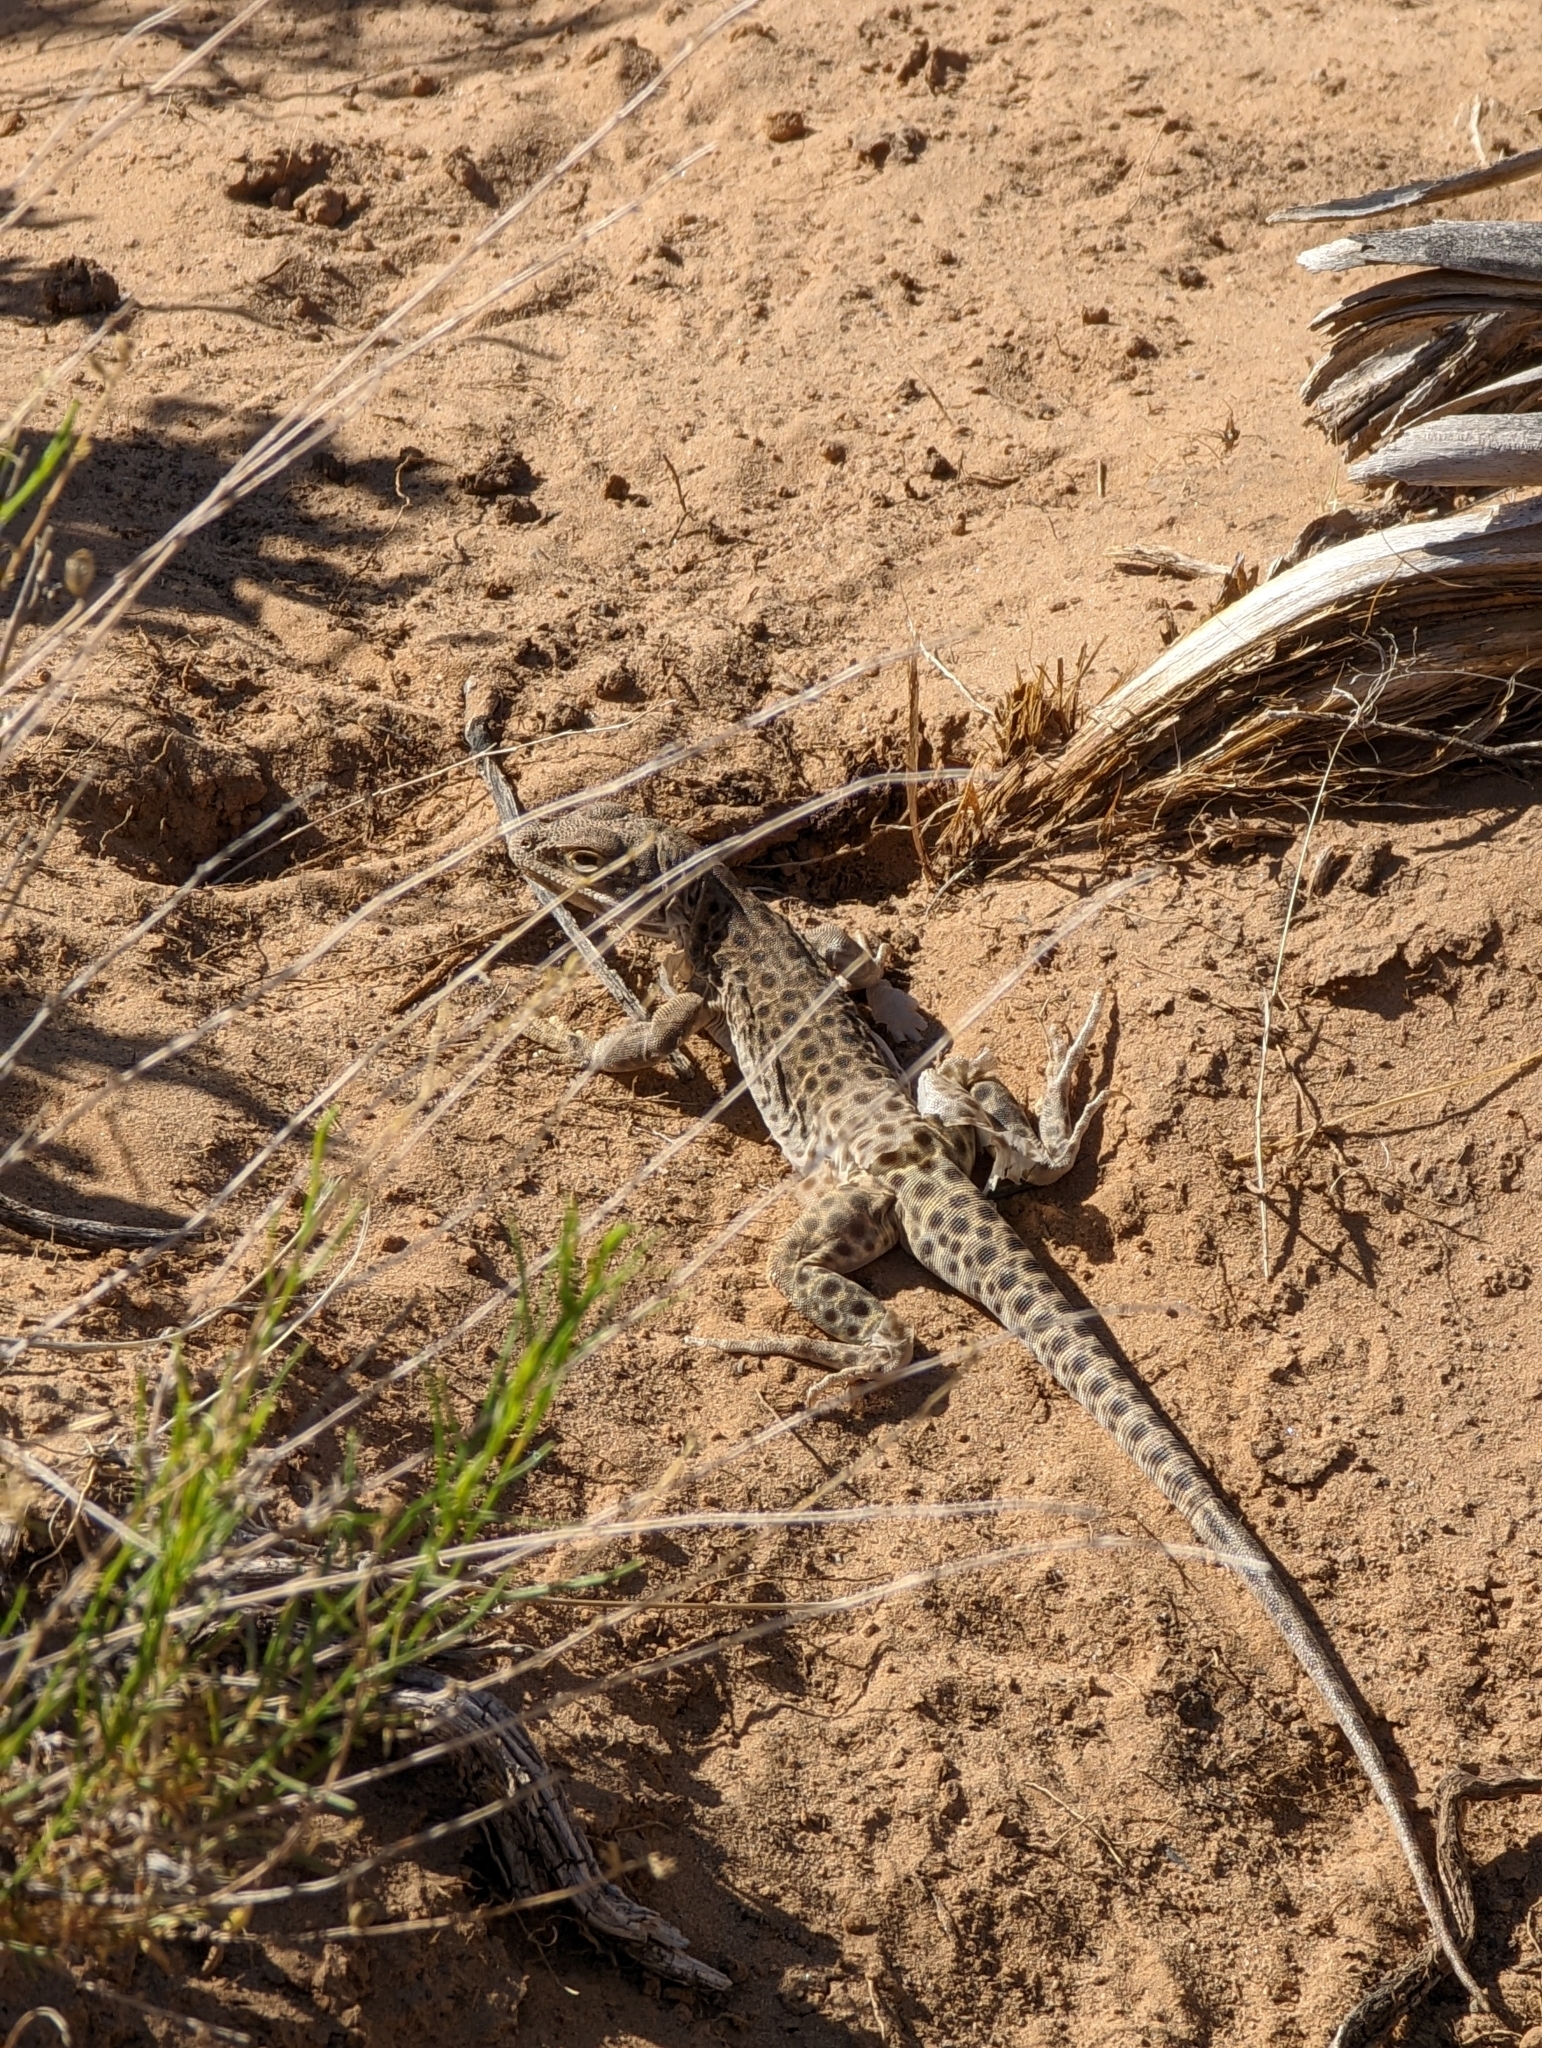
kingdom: Animalia
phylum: Chordata
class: Squamata
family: Crotaphytidae
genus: Gambelia
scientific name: Gambelia wislizenii
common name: Longnose leopard lizard
